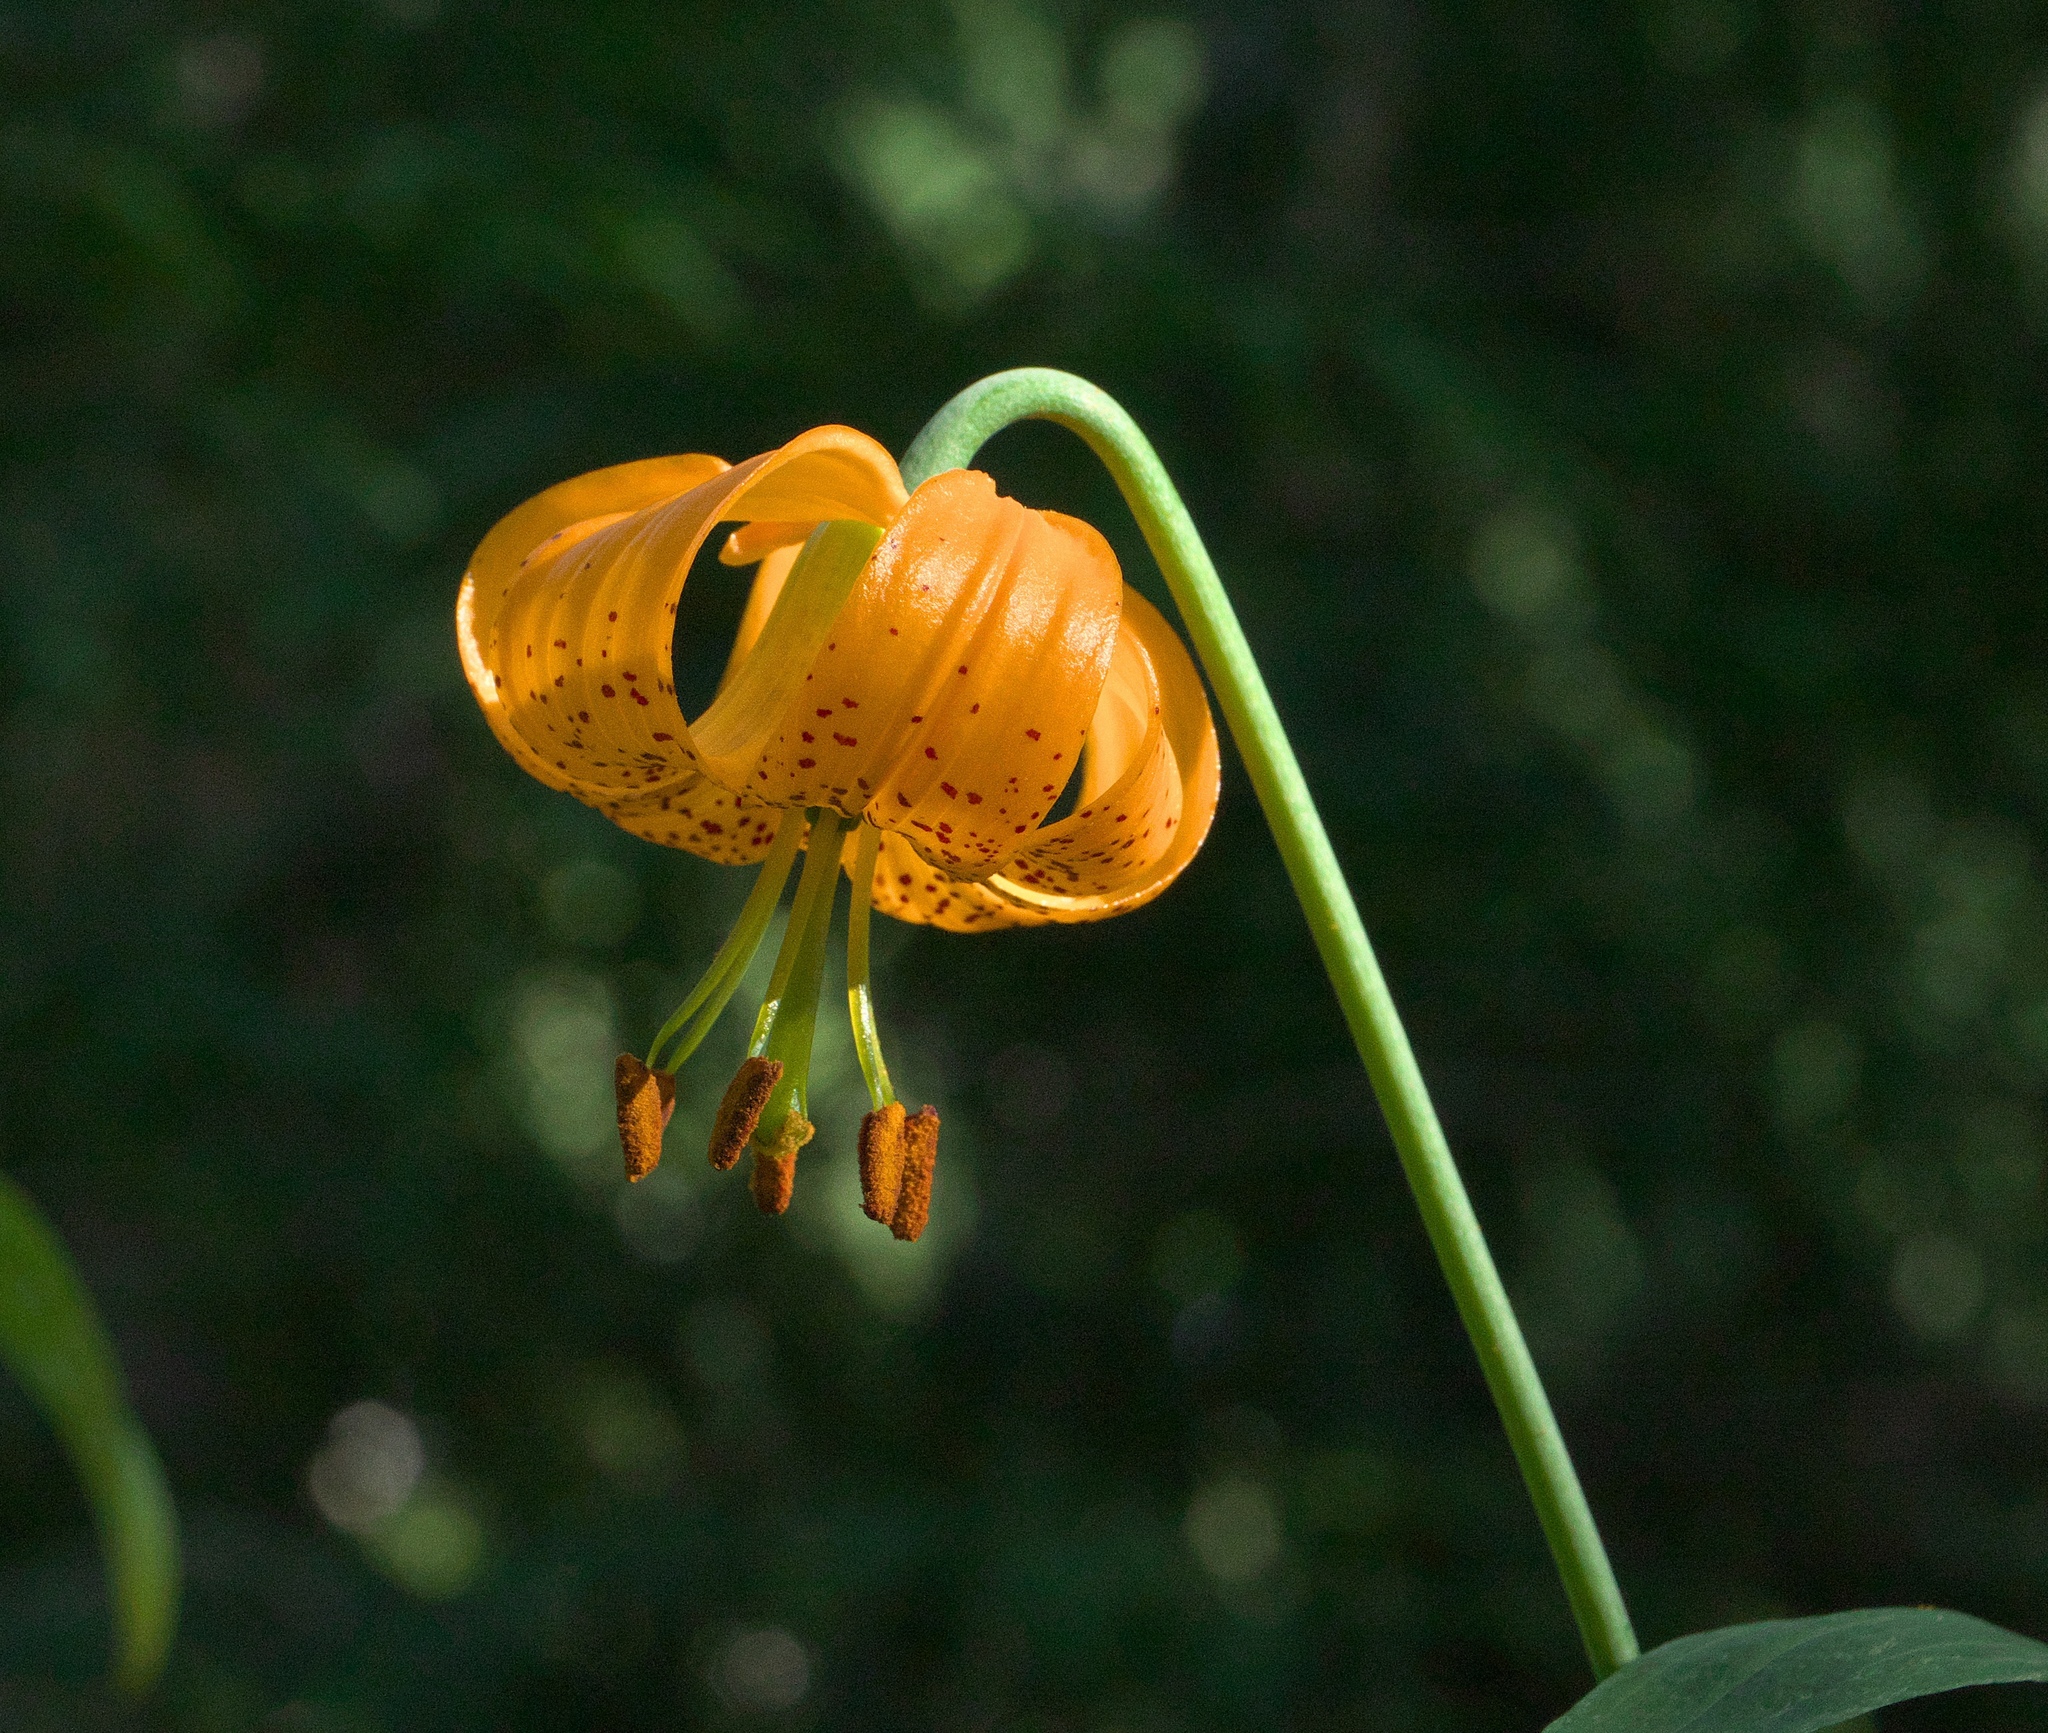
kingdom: Plantae
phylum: Tracheophyta
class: Liliopsida
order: Liliales
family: Liliaceae
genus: Lilium
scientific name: Lilium columbianum
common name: Columbia lily
